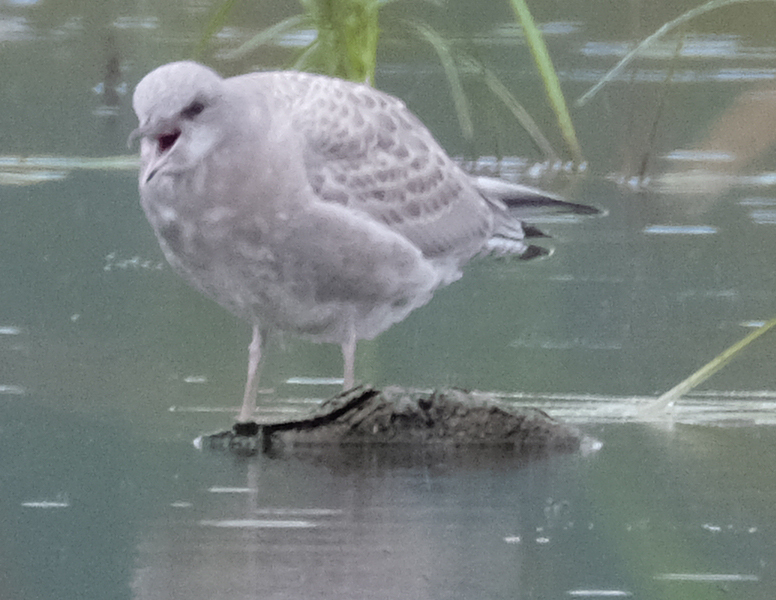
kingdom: Animalia
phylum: Chordata
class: Aves
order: Charadriiformes
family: Laridae
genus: Larus
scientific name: Larus brachyrhynchus
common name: Short-billed gull
